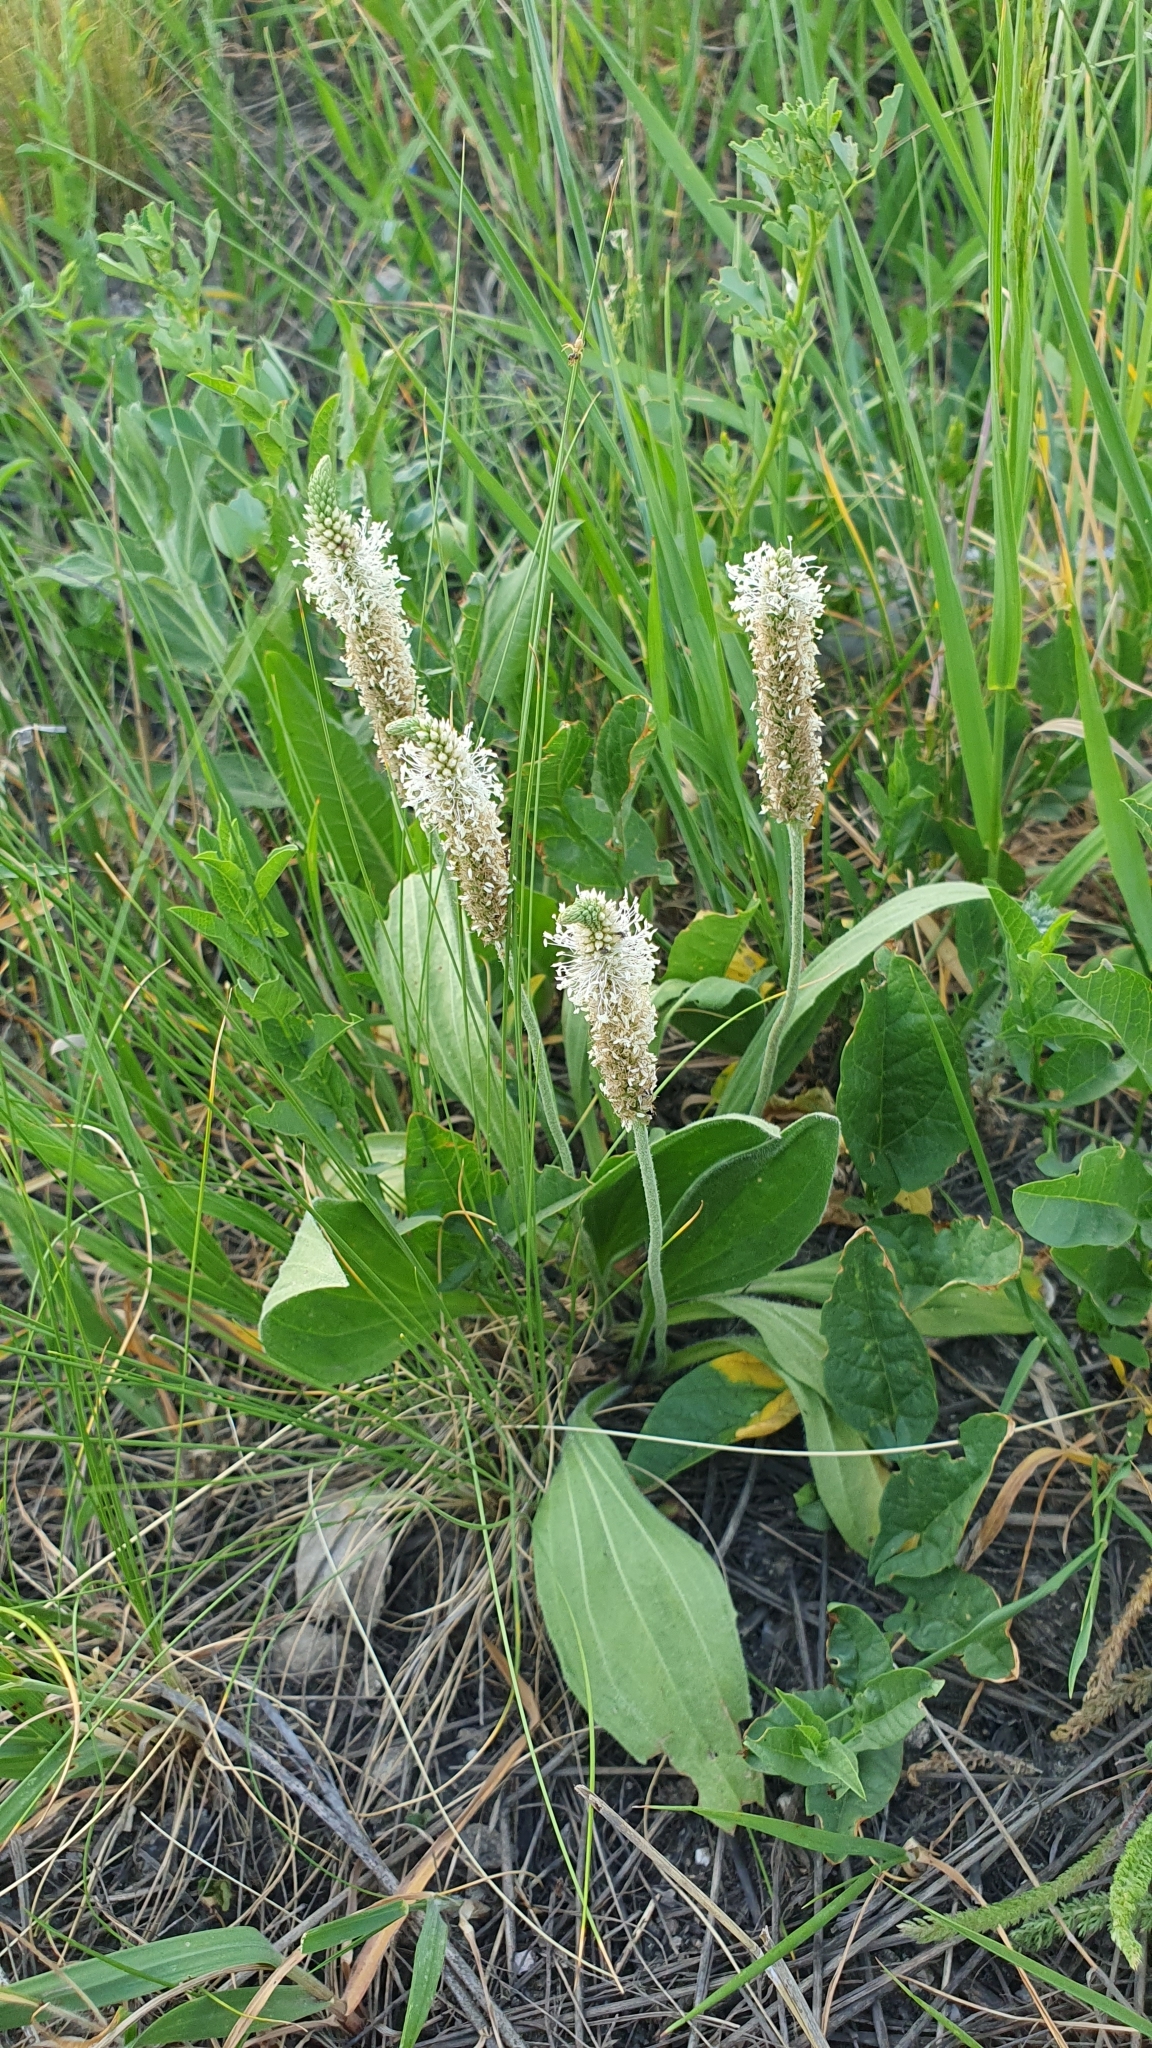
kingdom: Plantae
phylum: Tracheophyta
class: Magnoliopsida
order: Lamiales
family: Plantaginaceae
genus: Plantago
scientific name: Plantago urvillei
